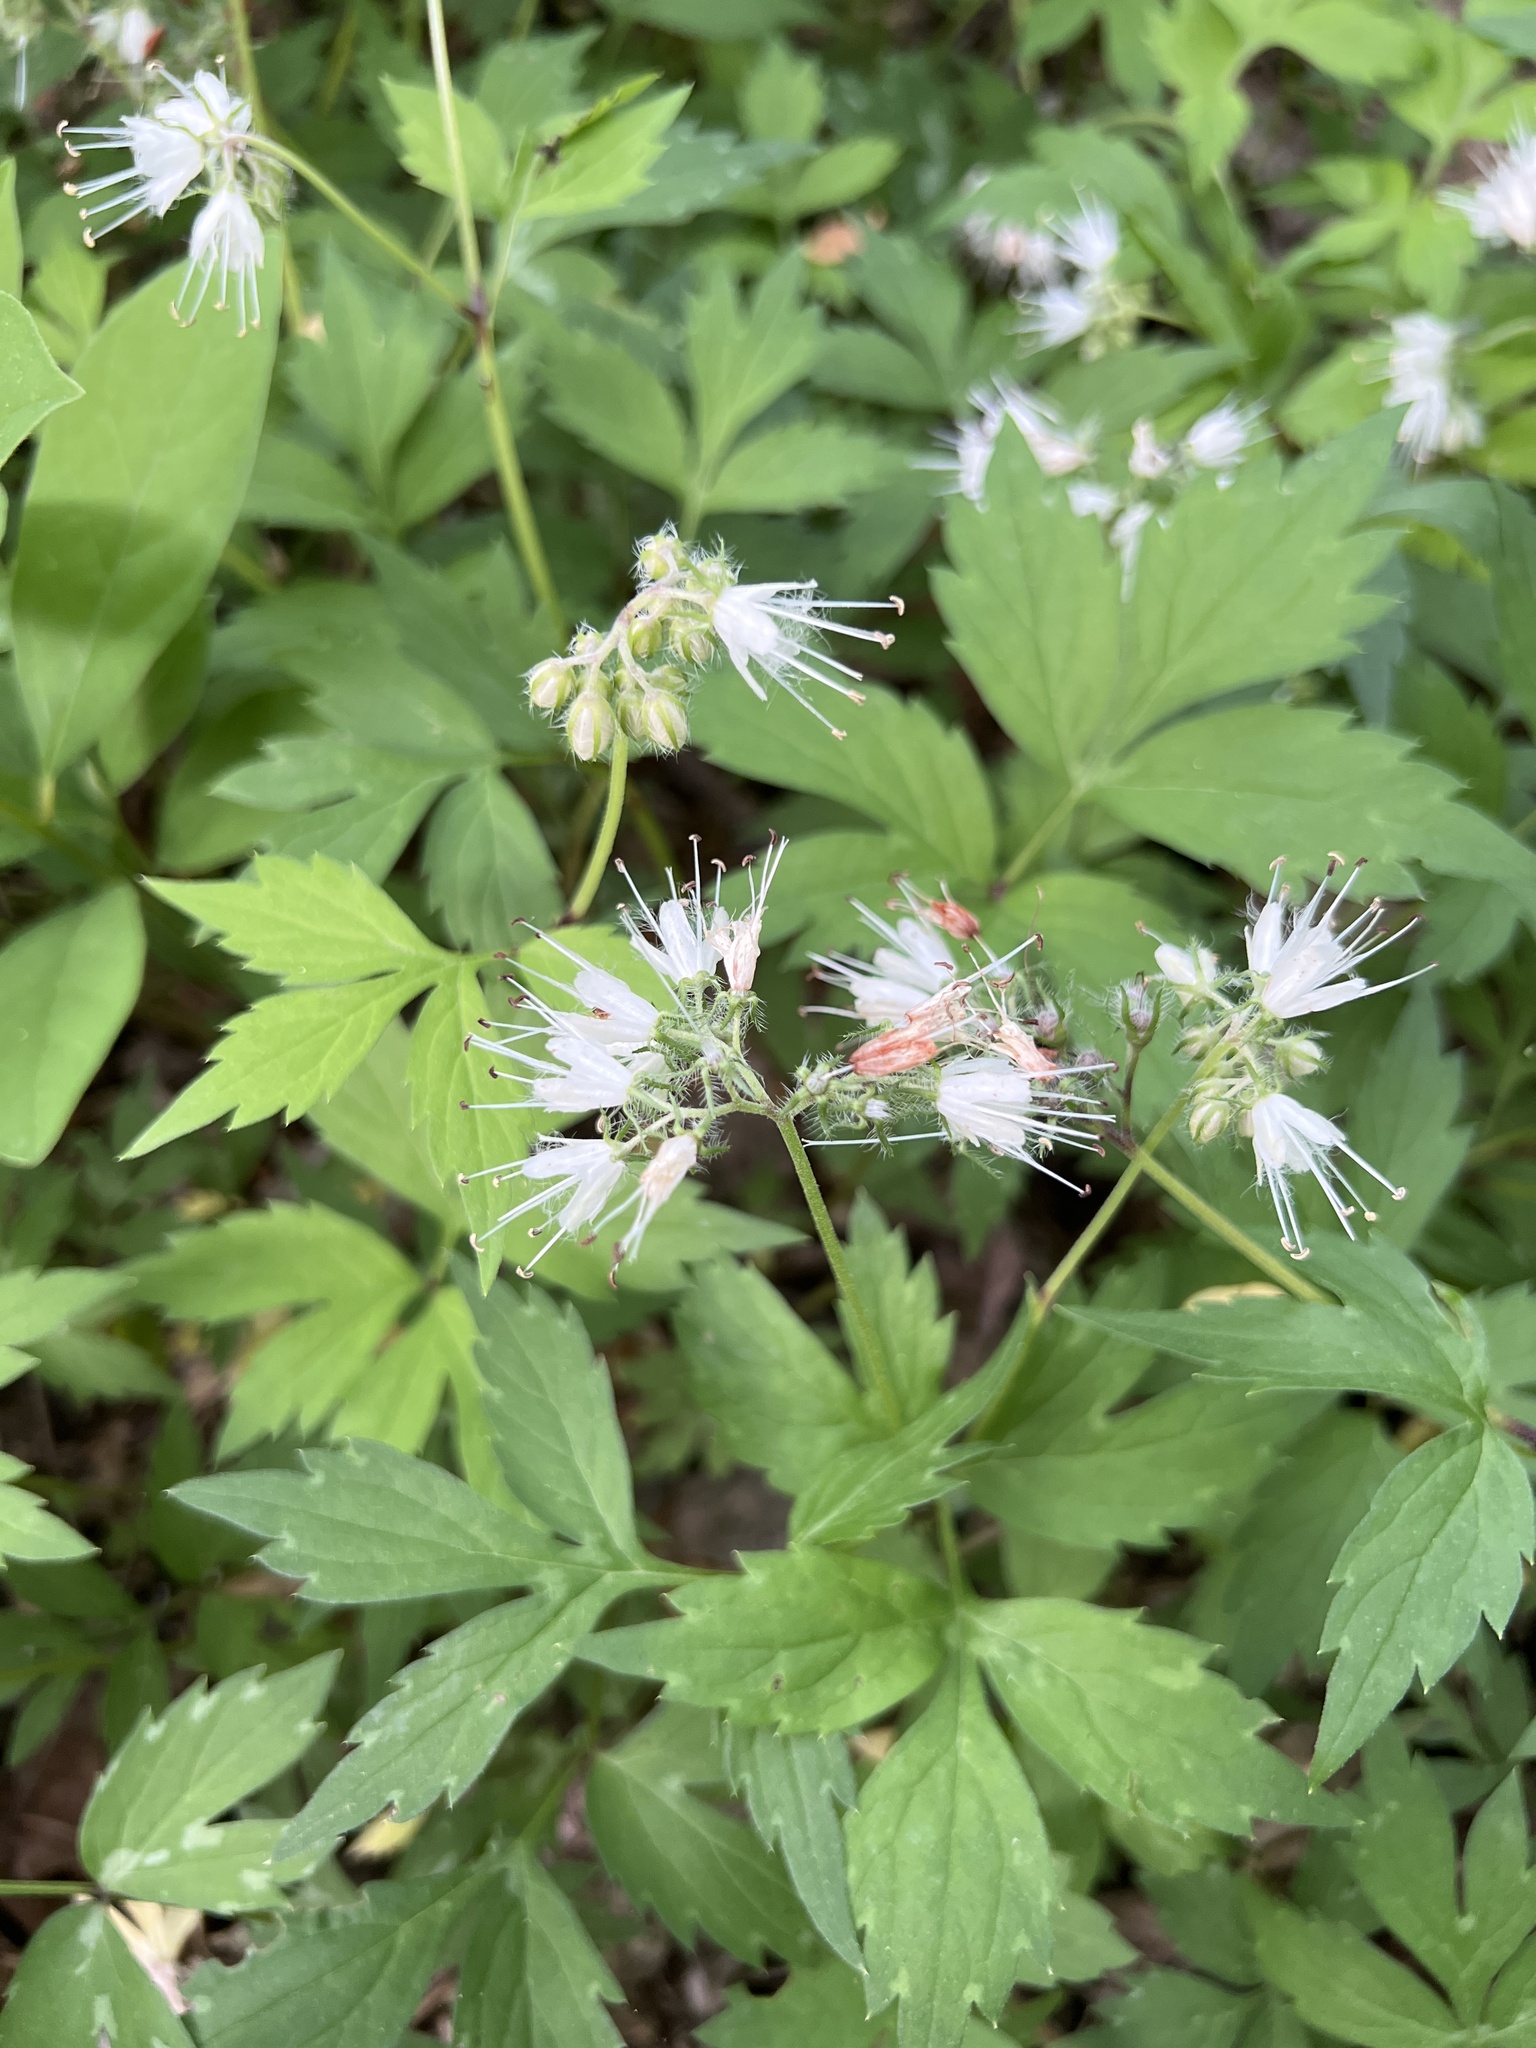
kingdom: Plantae
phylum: Tracheophyta
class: Magnoliopsida
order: Boraginales
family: Hydrophyllaceae
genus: Hydrophyllum
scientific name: Hydrophyllum virginianum
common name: Virginia waterleaf
